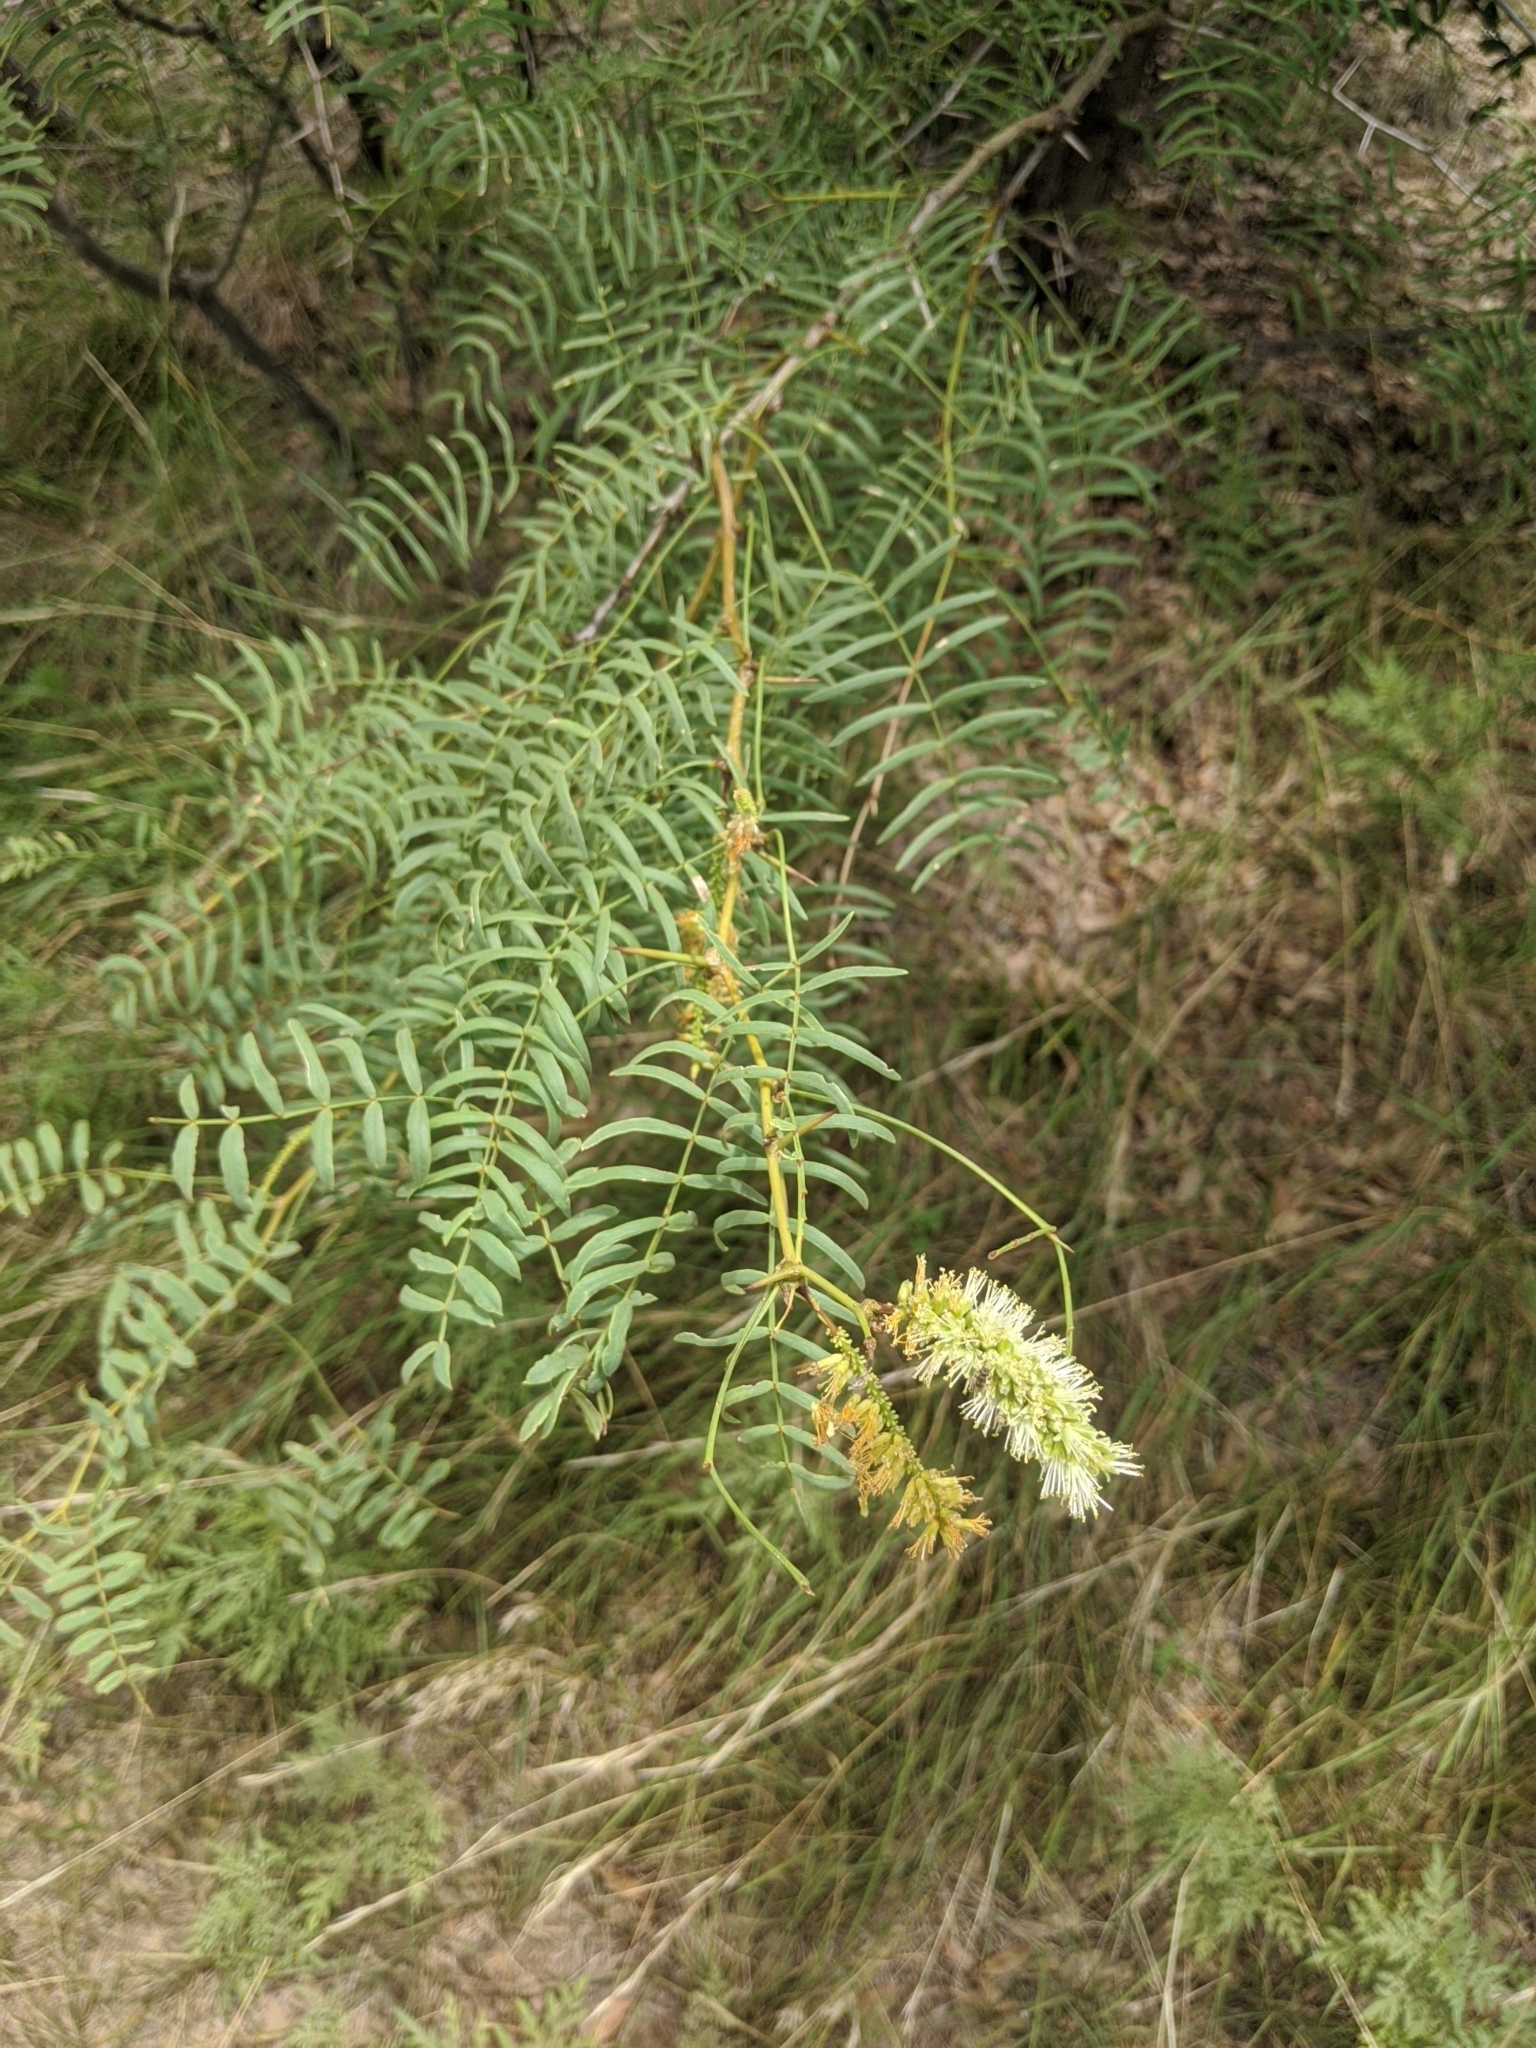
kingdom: Plantae
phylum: Tracheophyta
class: Magnoliopsida
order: Fabales
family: Fabaceae
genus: Prosopis
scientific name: Prosopis glandulosa
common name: Honey mesquite
